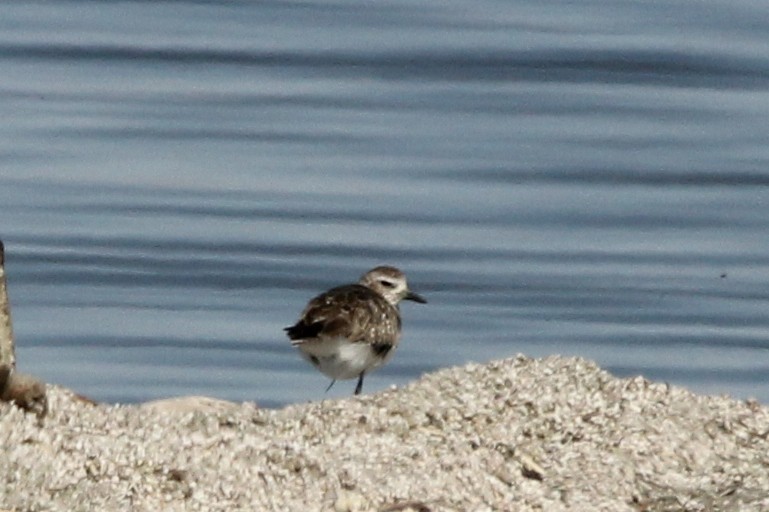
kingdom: Animalia
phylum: Chordata
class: Aves
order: Charadriiformes
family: Charadriidae
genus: Pluvialis
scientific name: Pluvialis squatarola
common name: Grey plover
